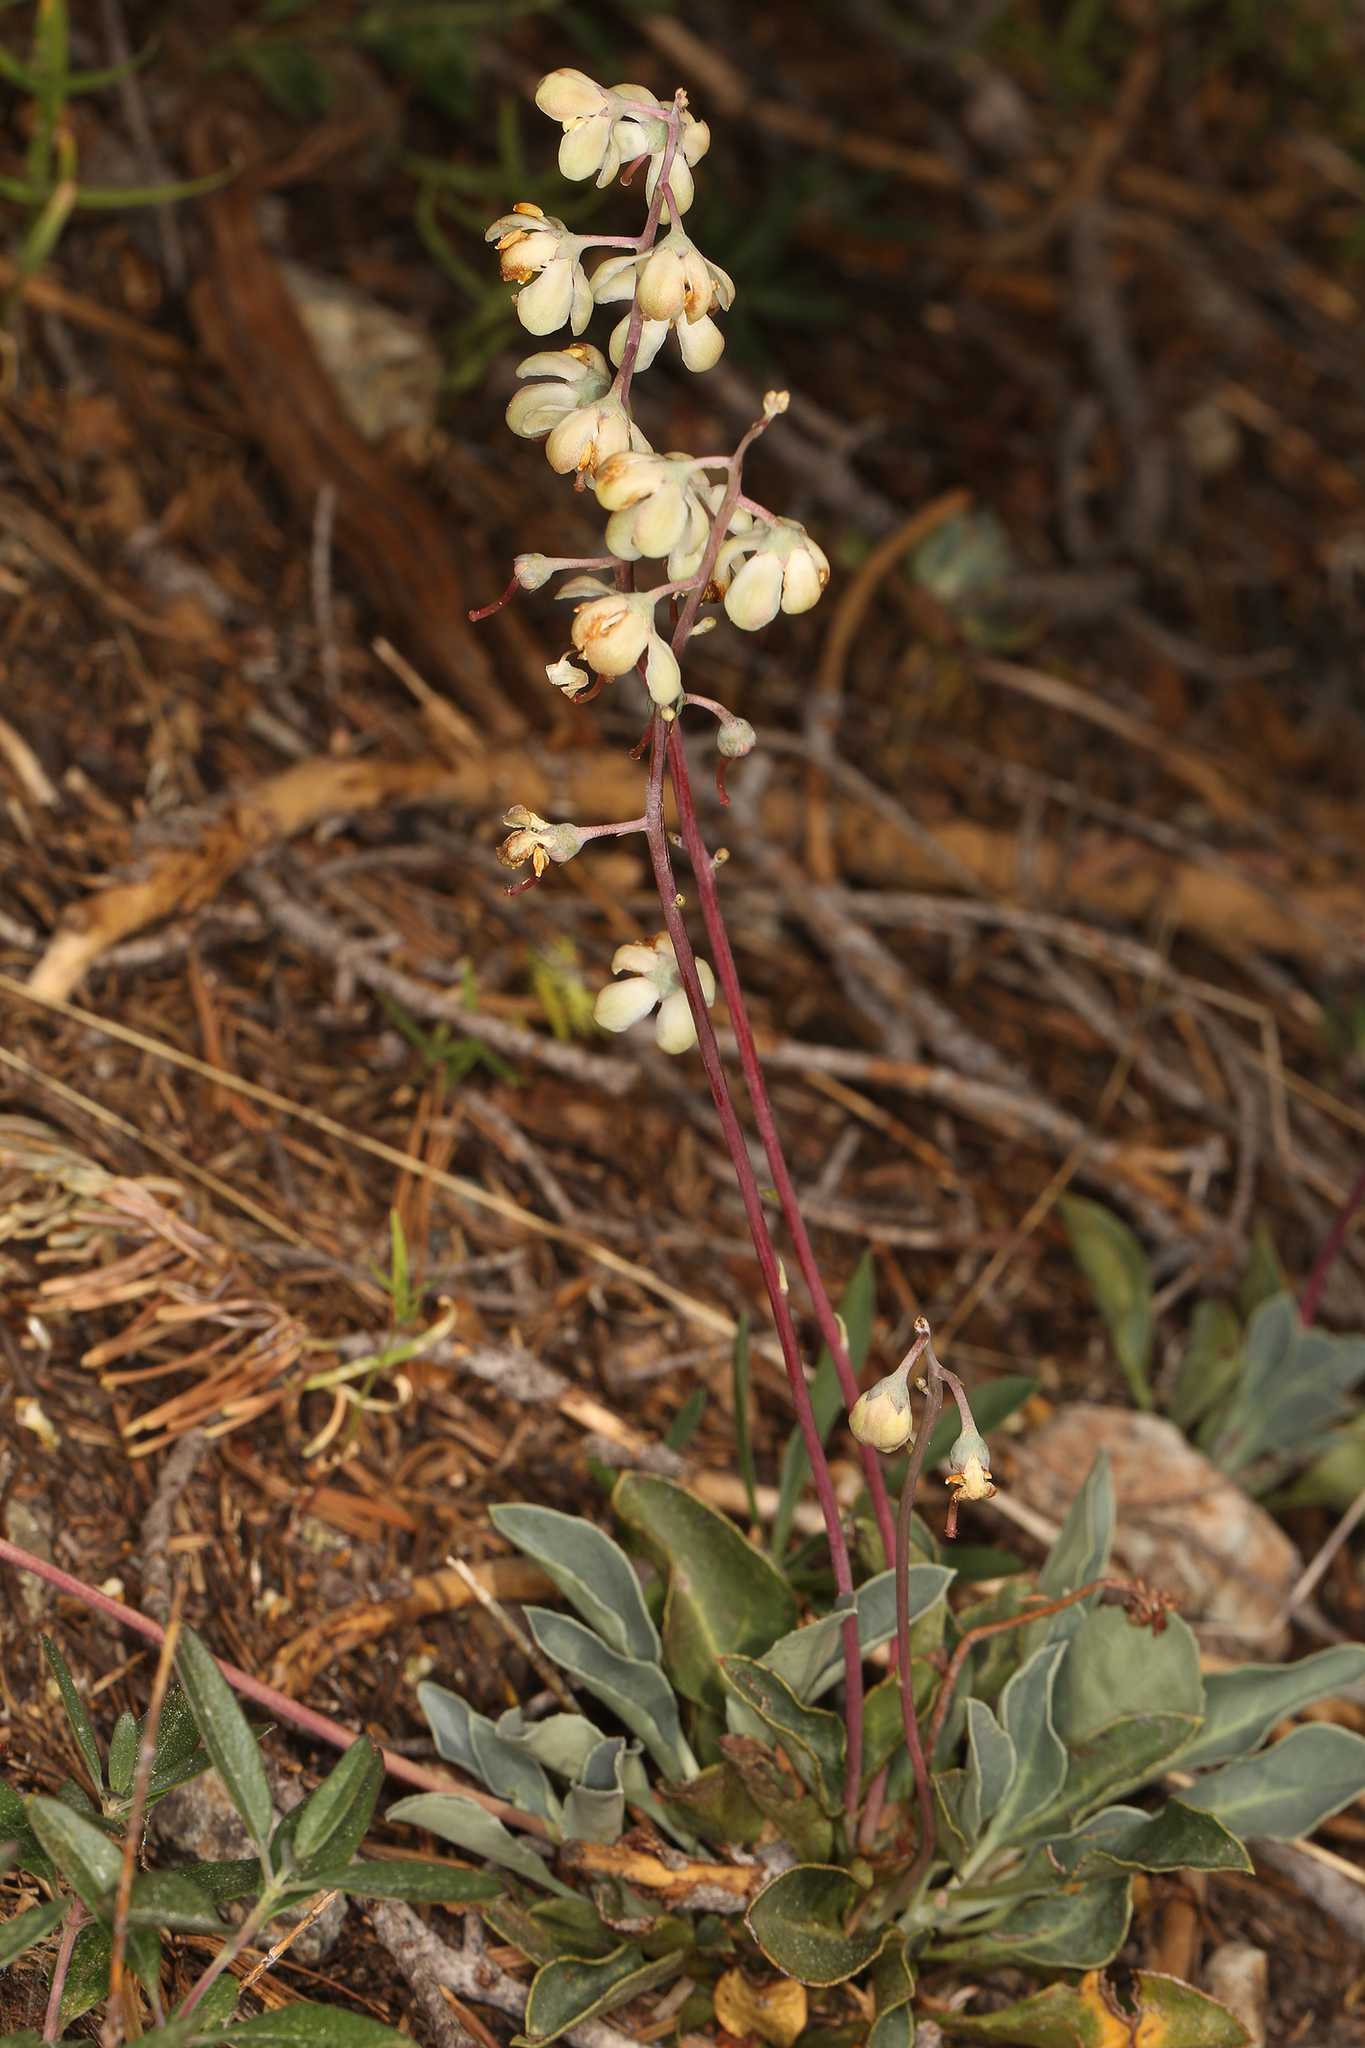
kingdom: Plantae
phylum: Tracheophyta
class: Magnoliopsida
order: Ericales
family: Ericaceae
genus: Pyrola
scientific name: Pyrola dentata
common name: Tooth-leaved wintergreen
